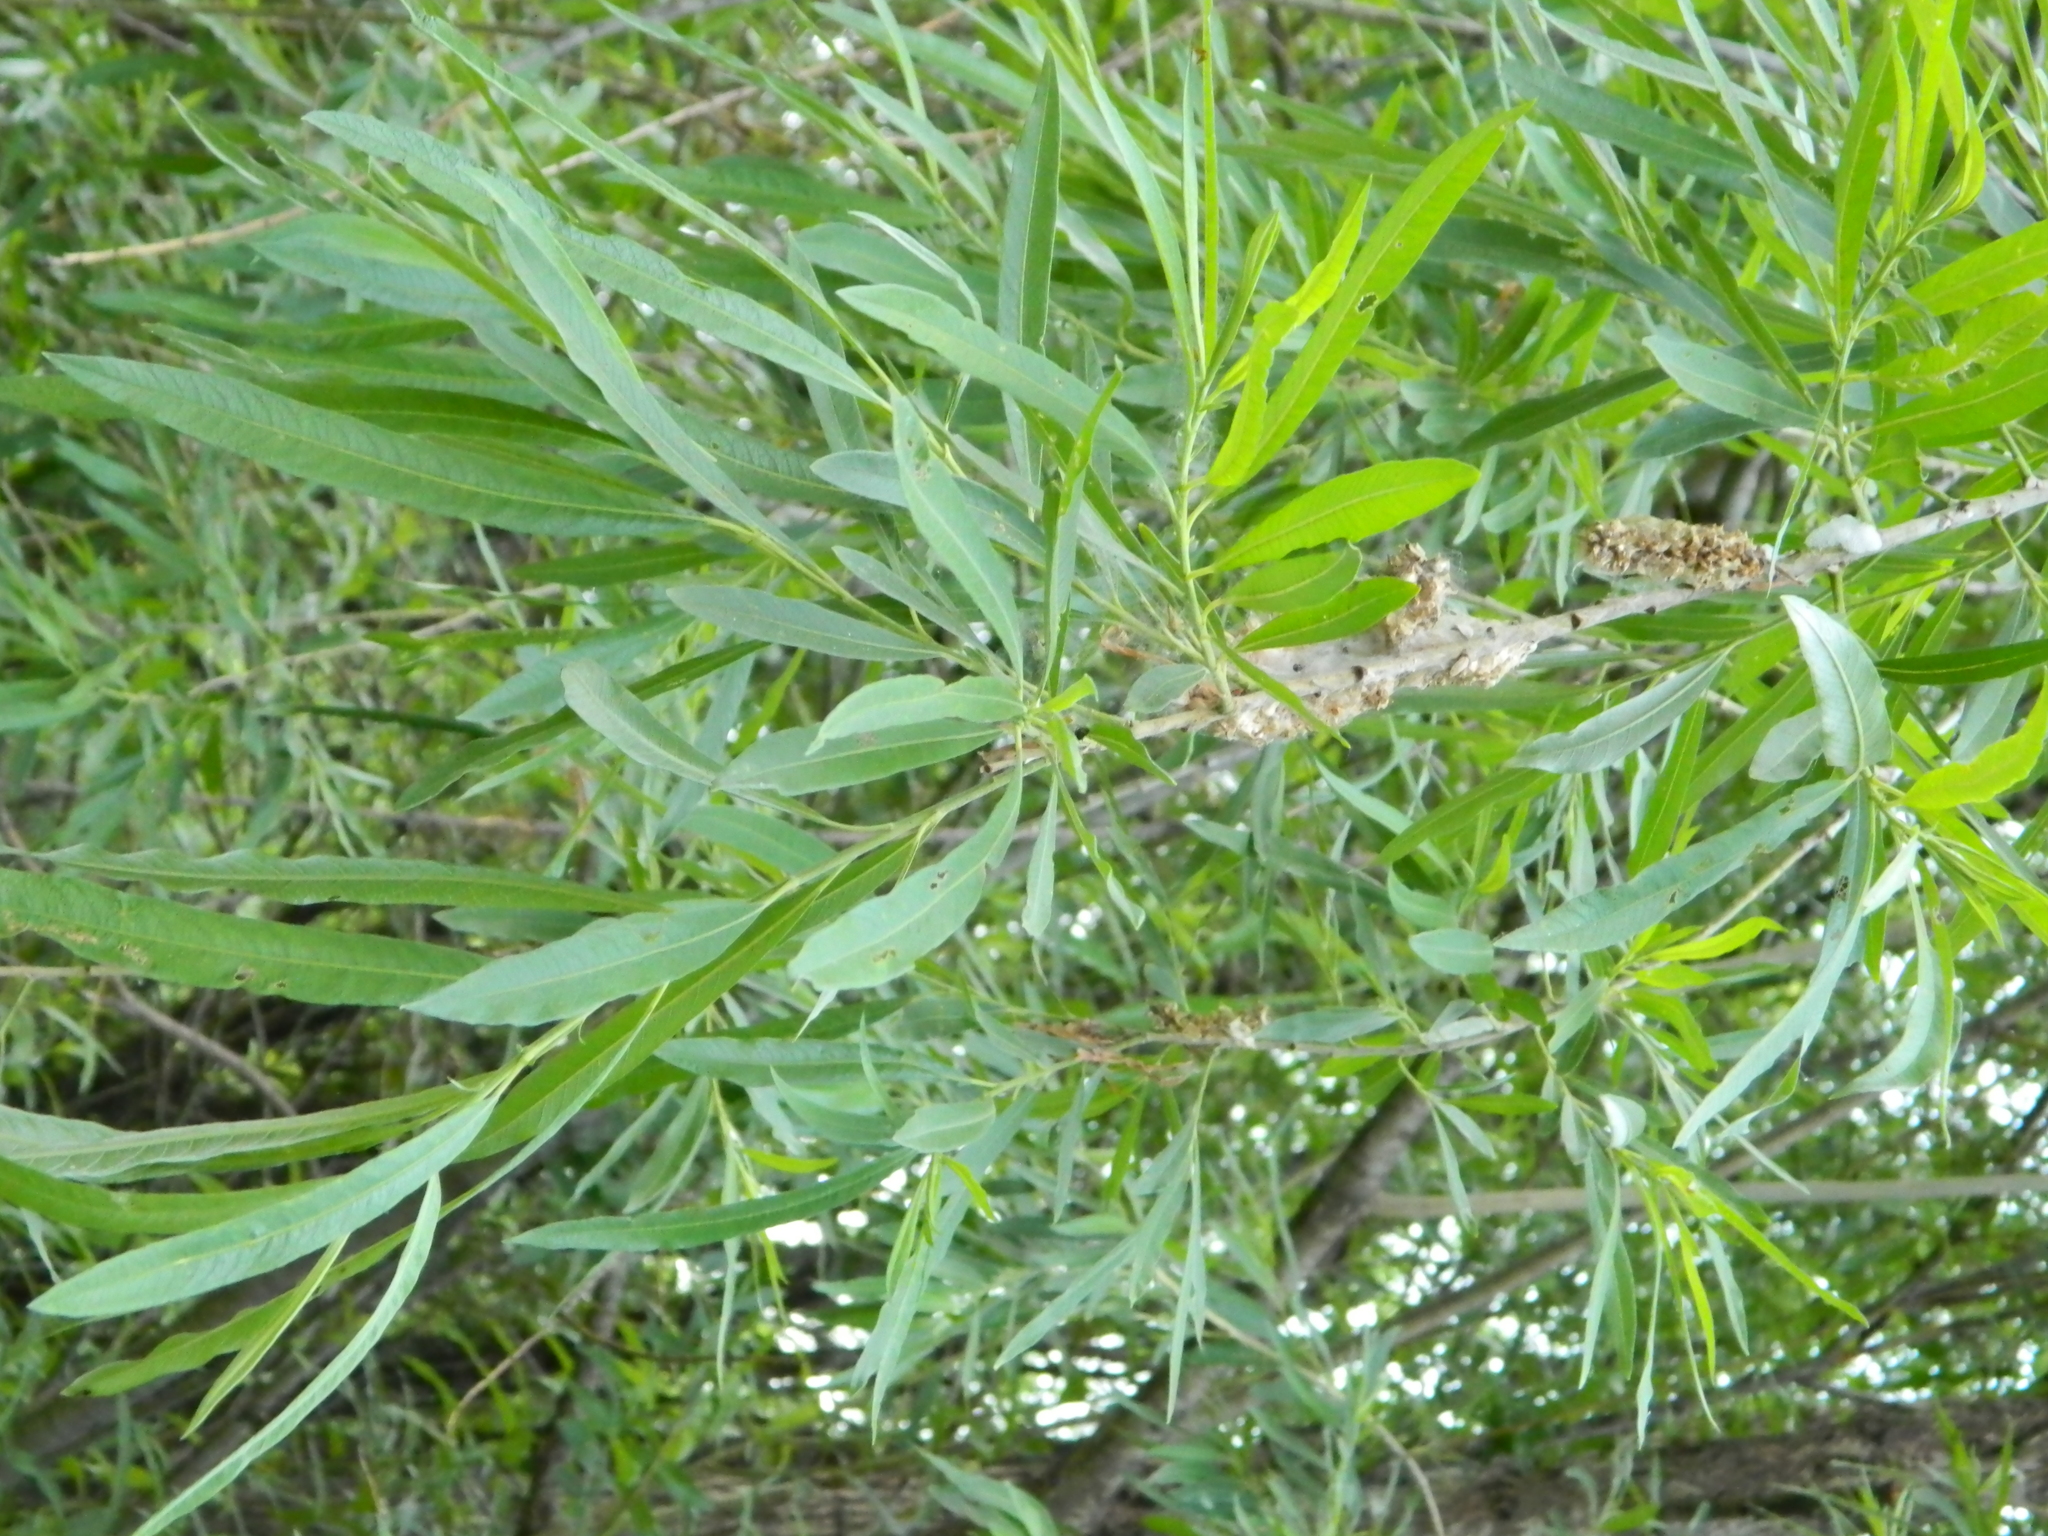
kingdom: Plantae
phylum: Tracheophyta
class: Magnoliopsida
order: Malpighiales
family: Salicaceae
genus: Salix
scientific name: Salix viminalis
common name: Osier
